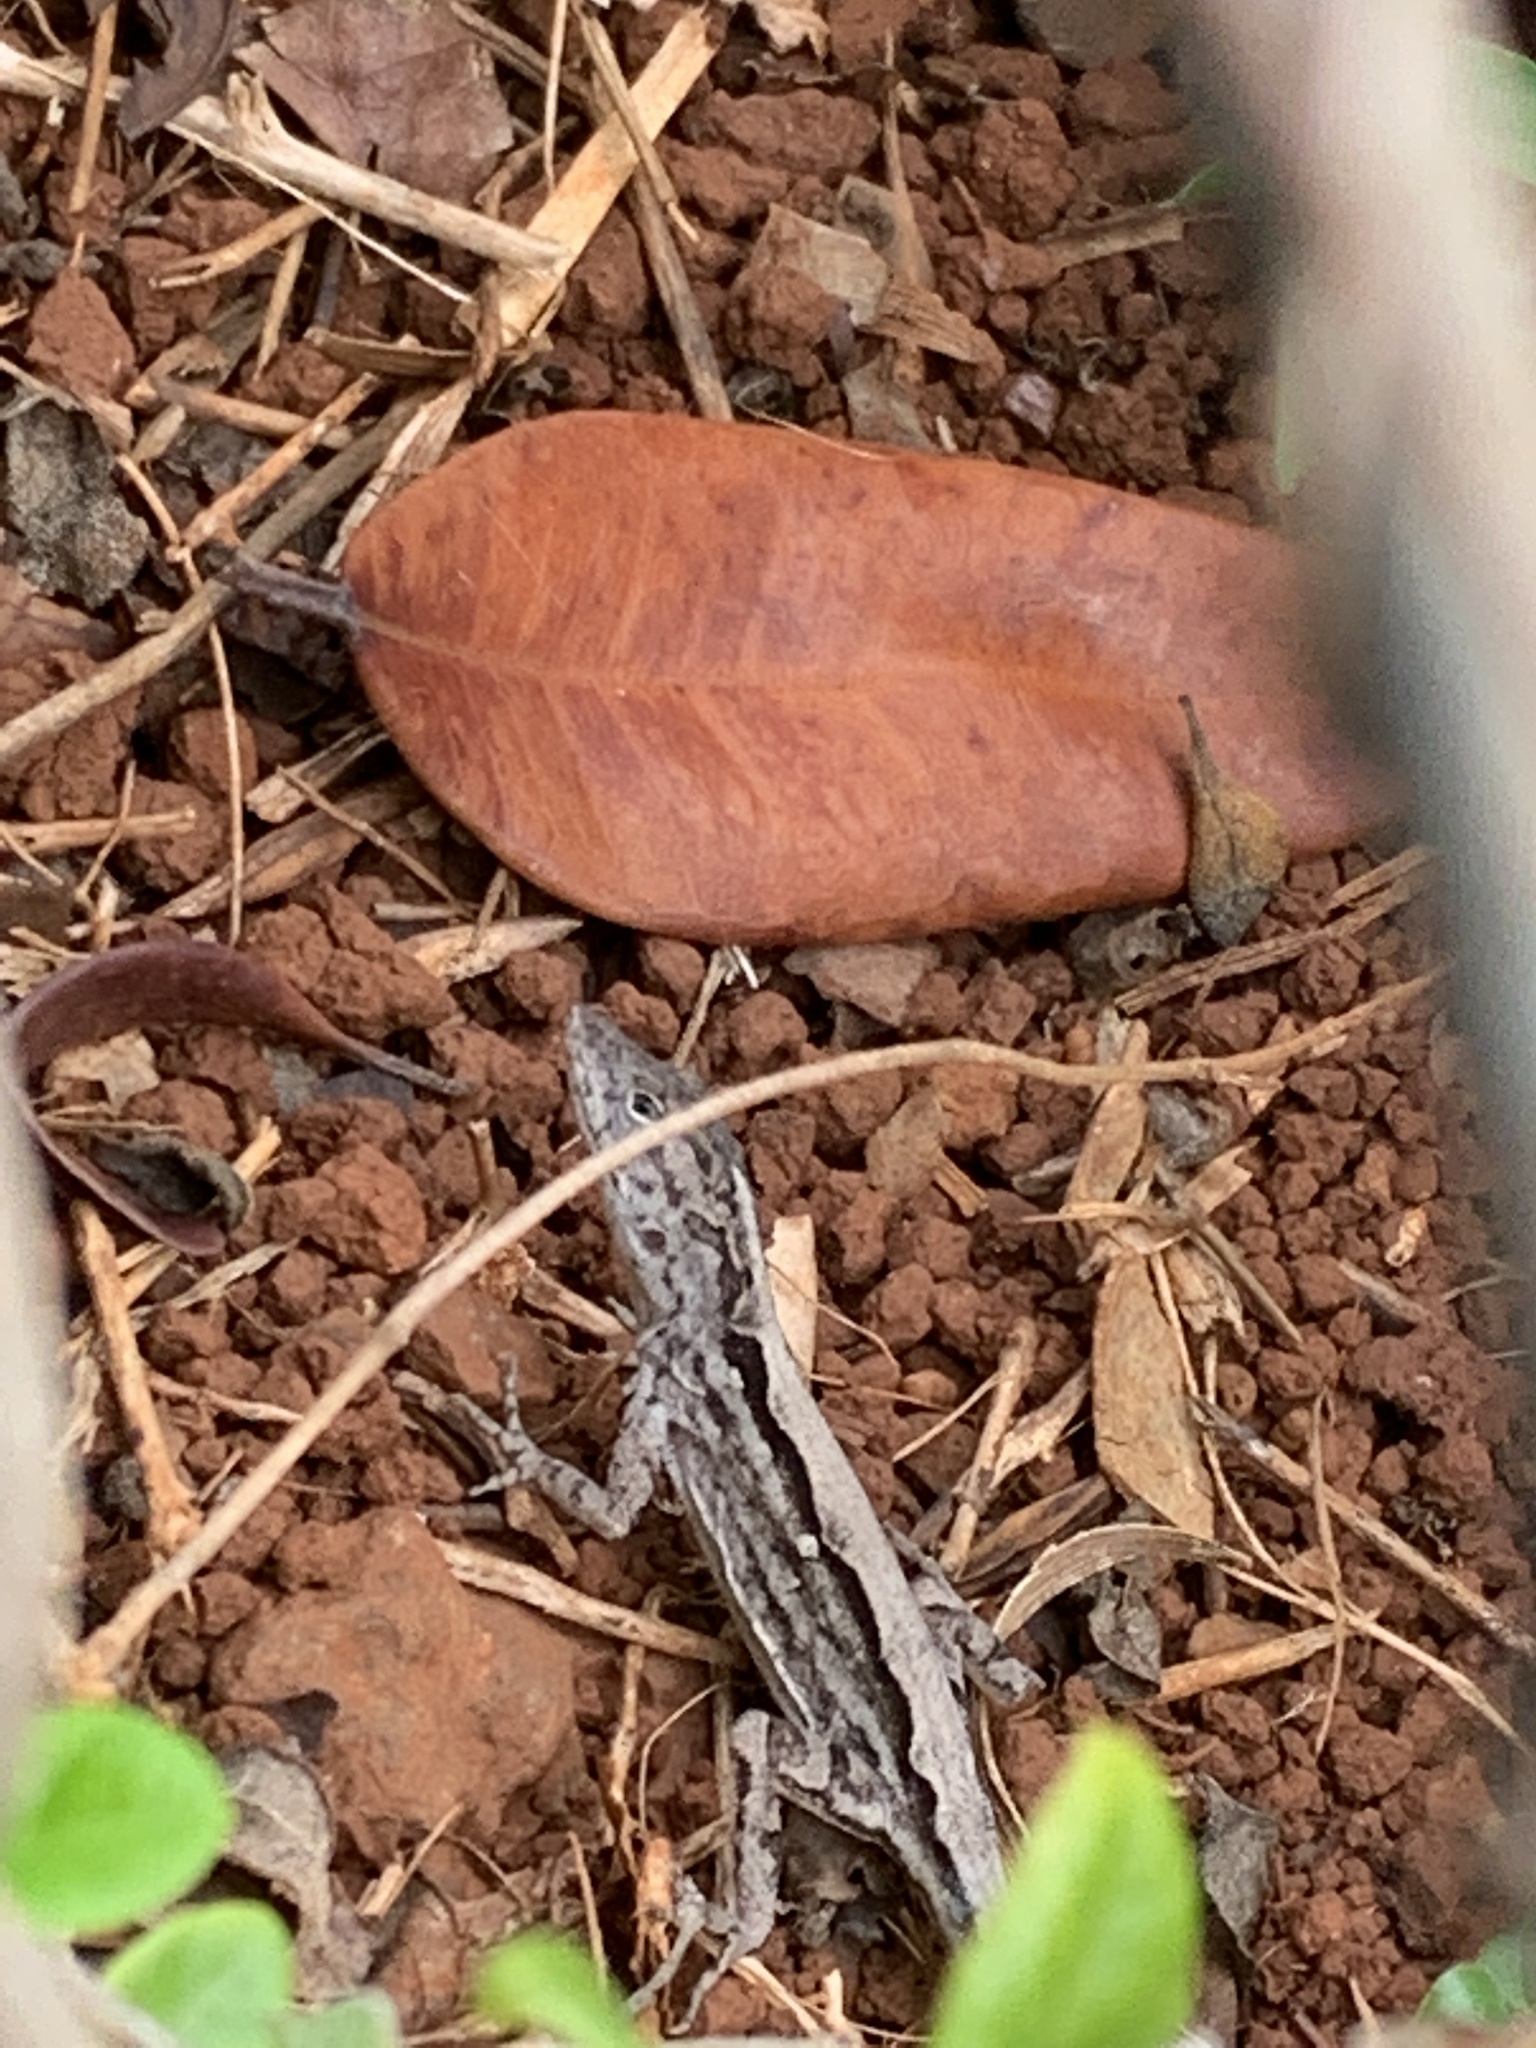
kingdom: Animalia
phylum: Chordata
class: Squamata
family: Dactyloidae
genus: Anolis
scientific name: Anolis sagrei
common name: Brown anole
